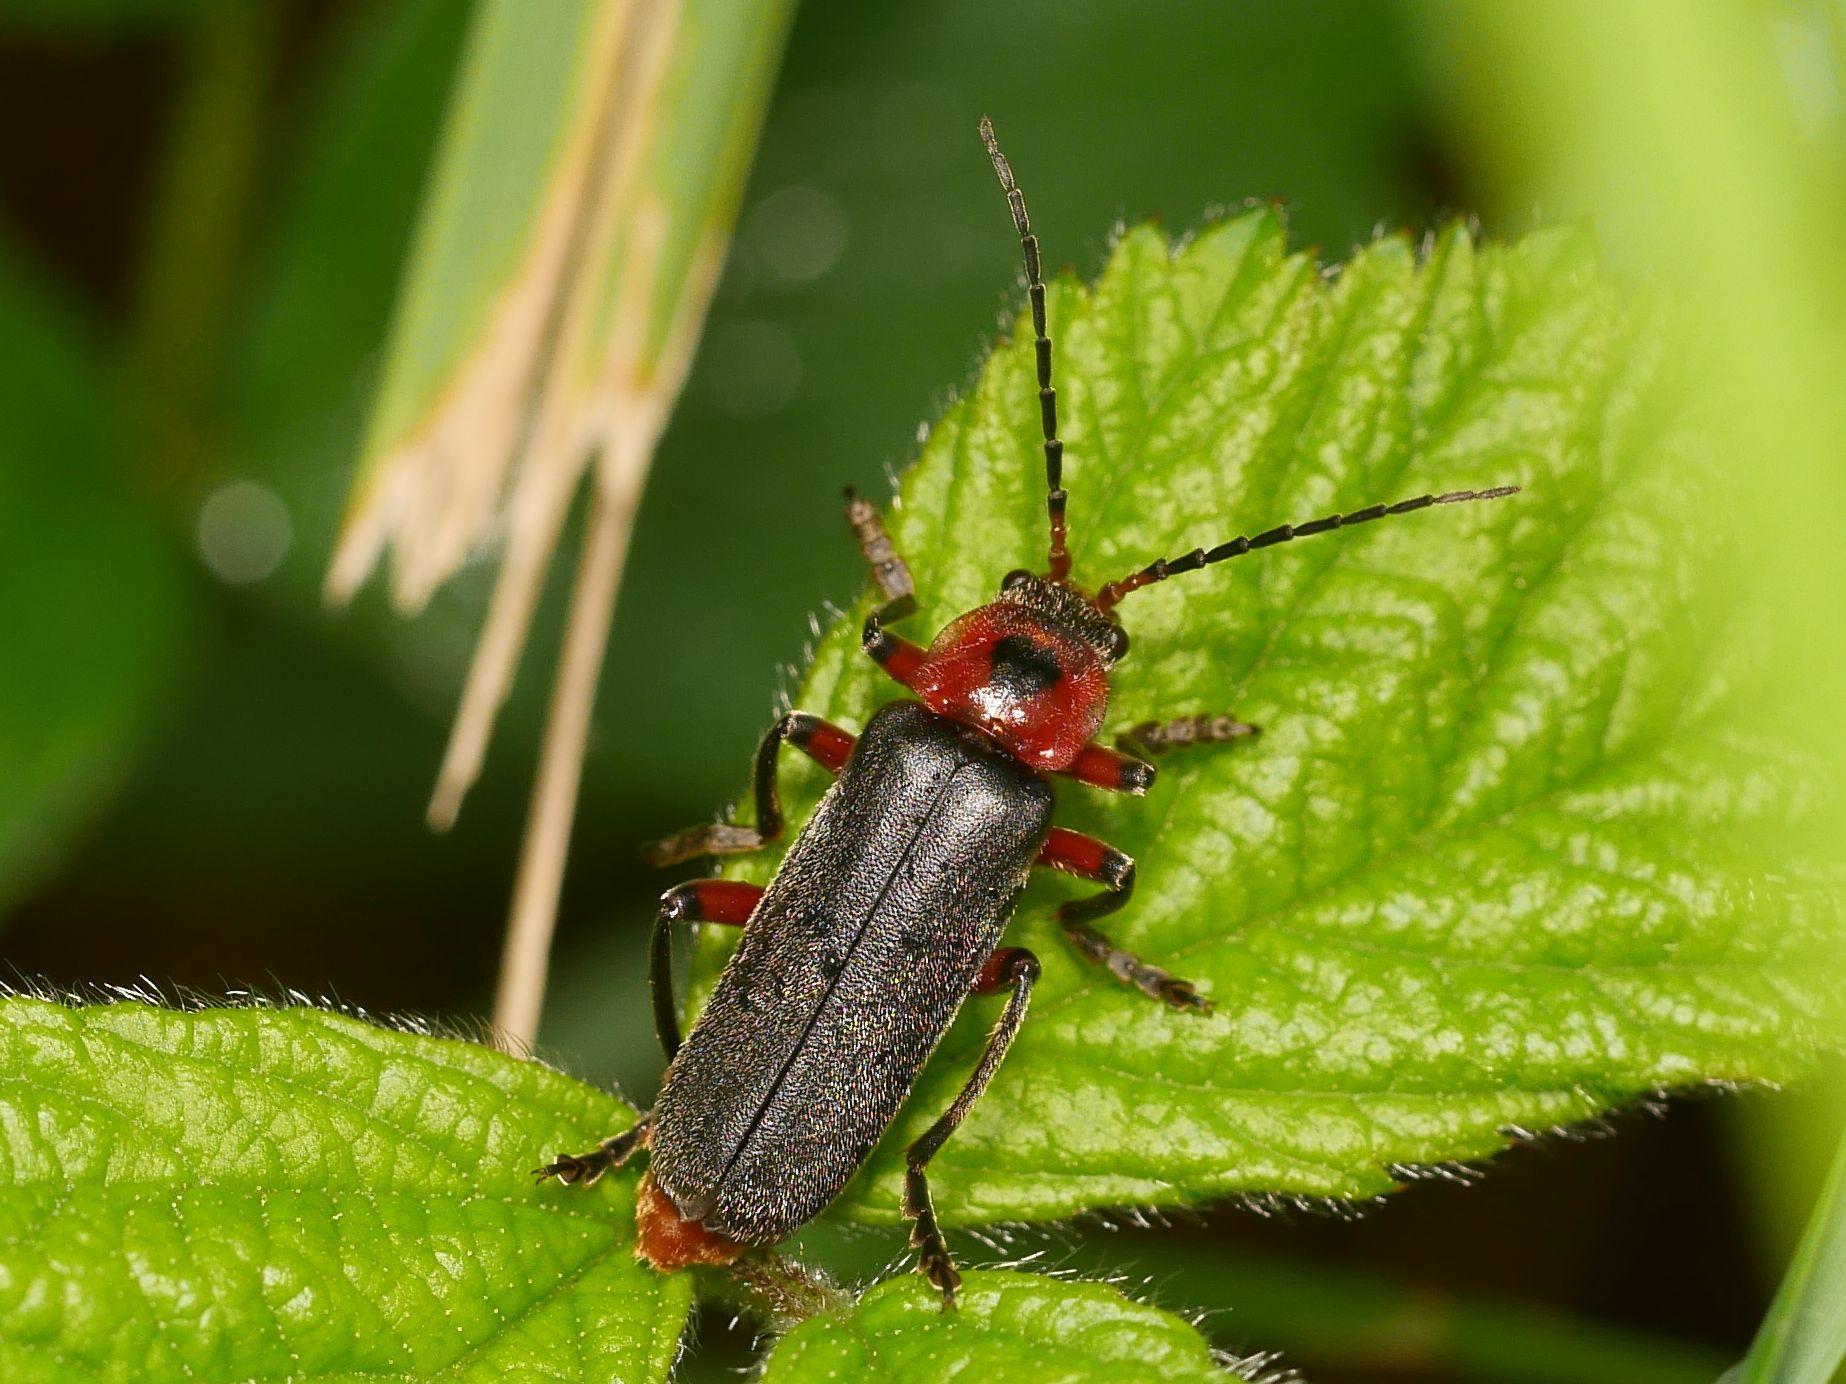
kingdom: Animalia
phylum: Arthropoda
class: Insecta
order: Coleoptera
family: Cantharidae
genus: Cantharis
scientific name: Cantharis rustica
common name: Soldier beetle
